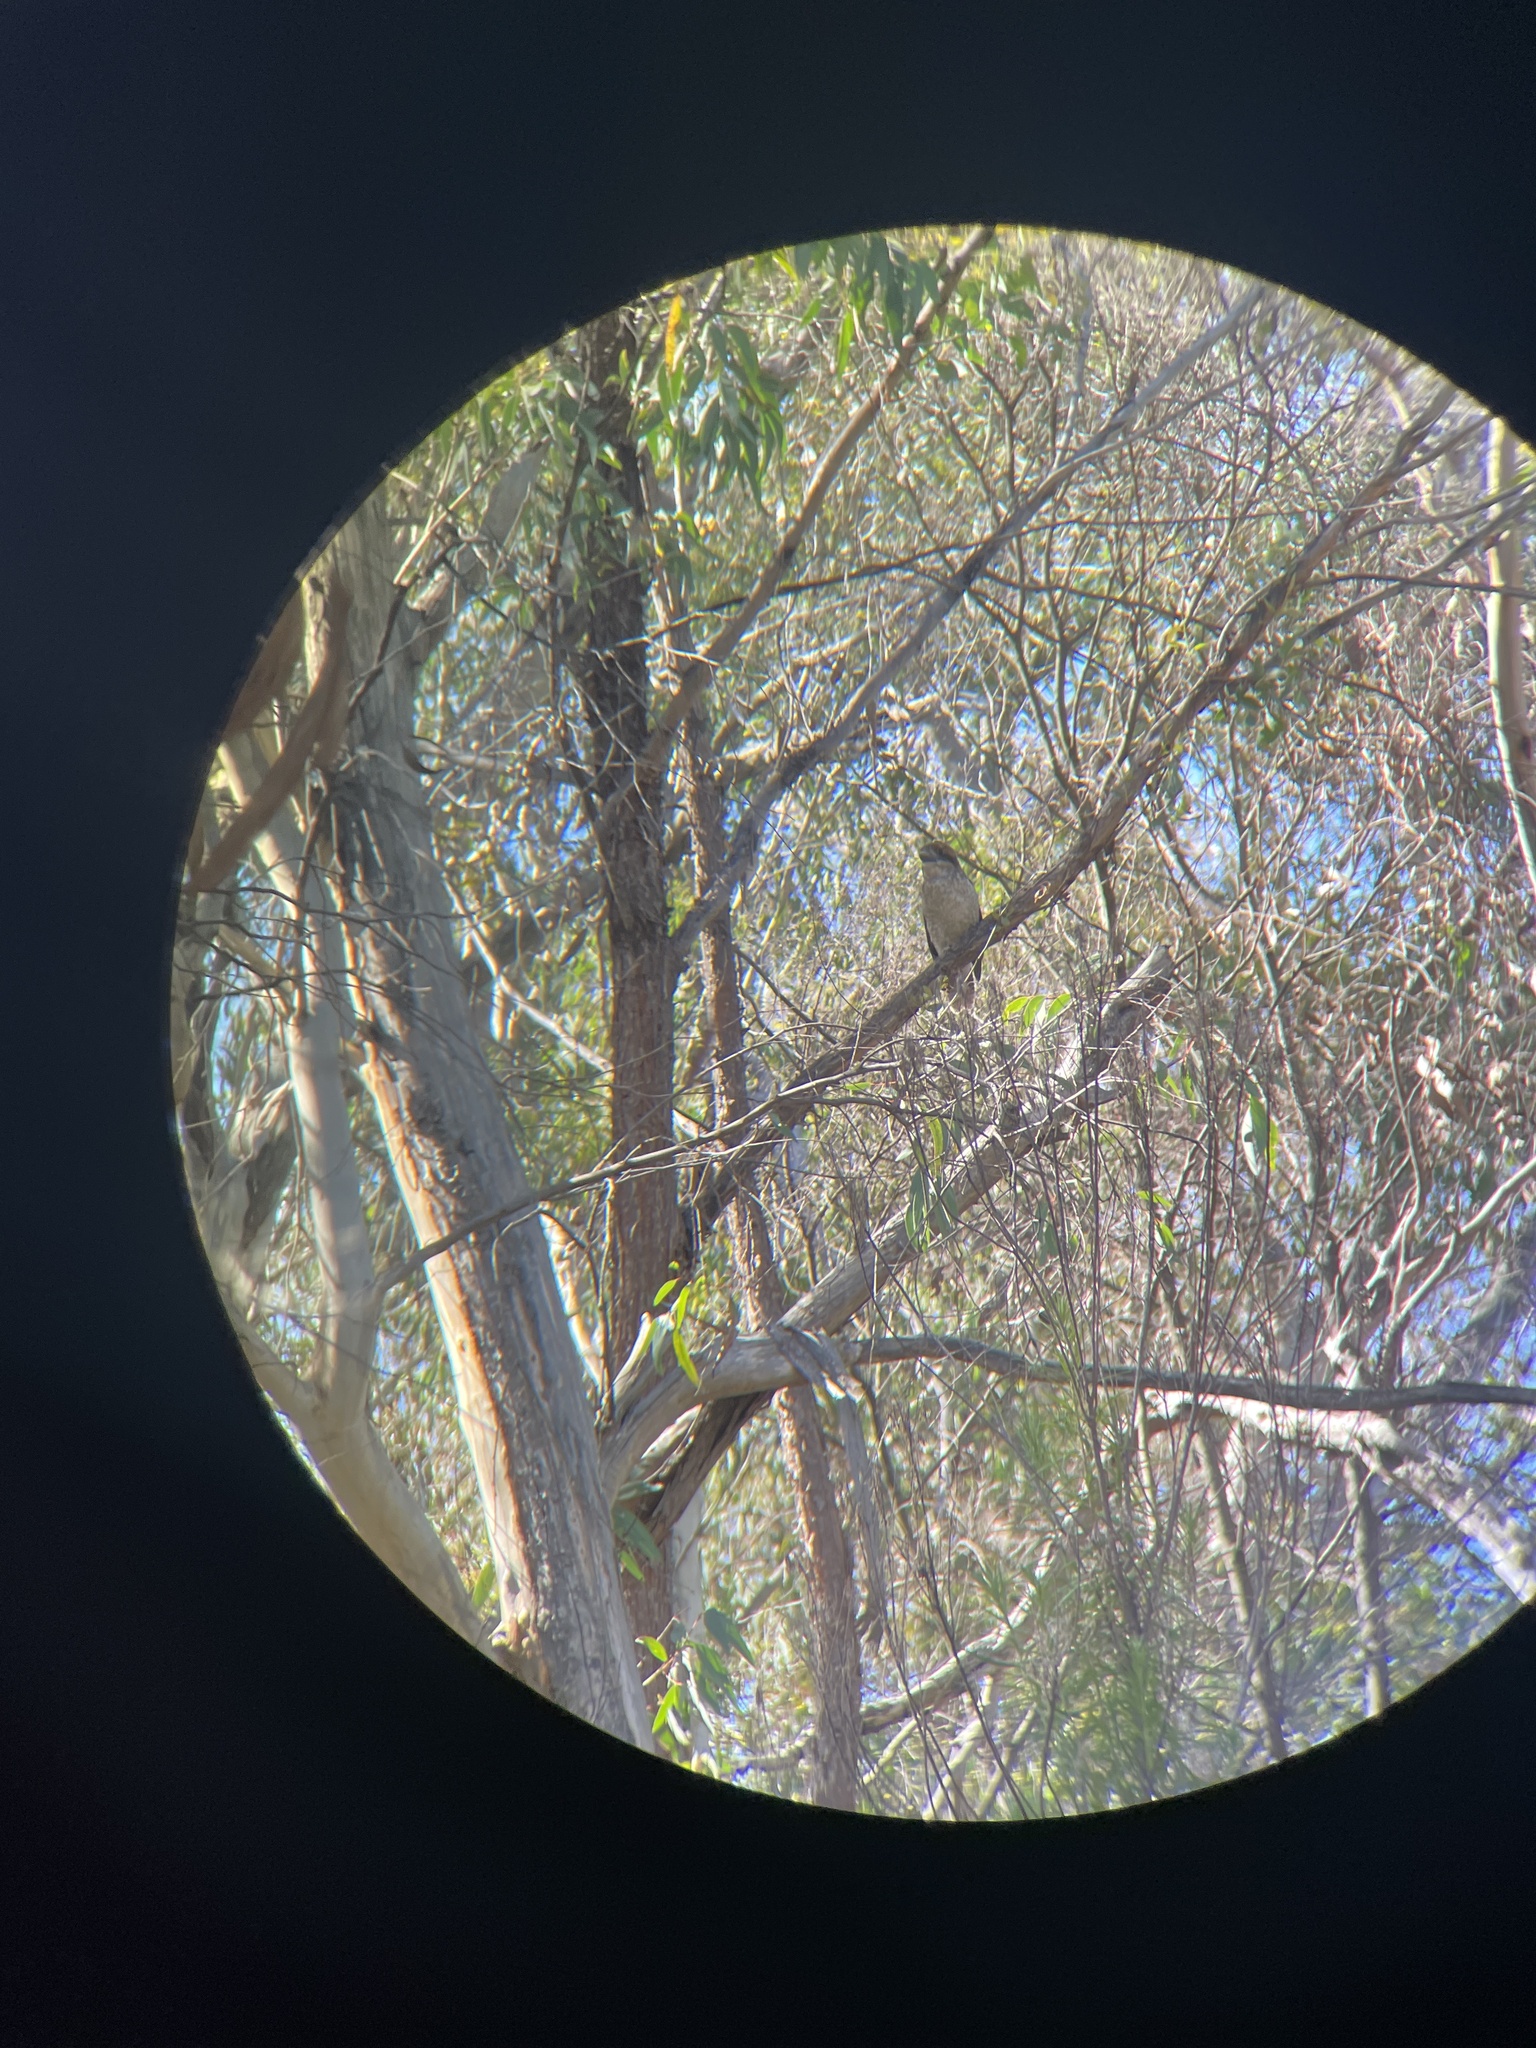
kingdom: Animalia
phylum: Chordata
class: Aves
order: Coraciiformes
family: Alcedinidae
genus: Dacelo
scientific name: Dacelo novaeguineae
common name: Laughing kookaburra
